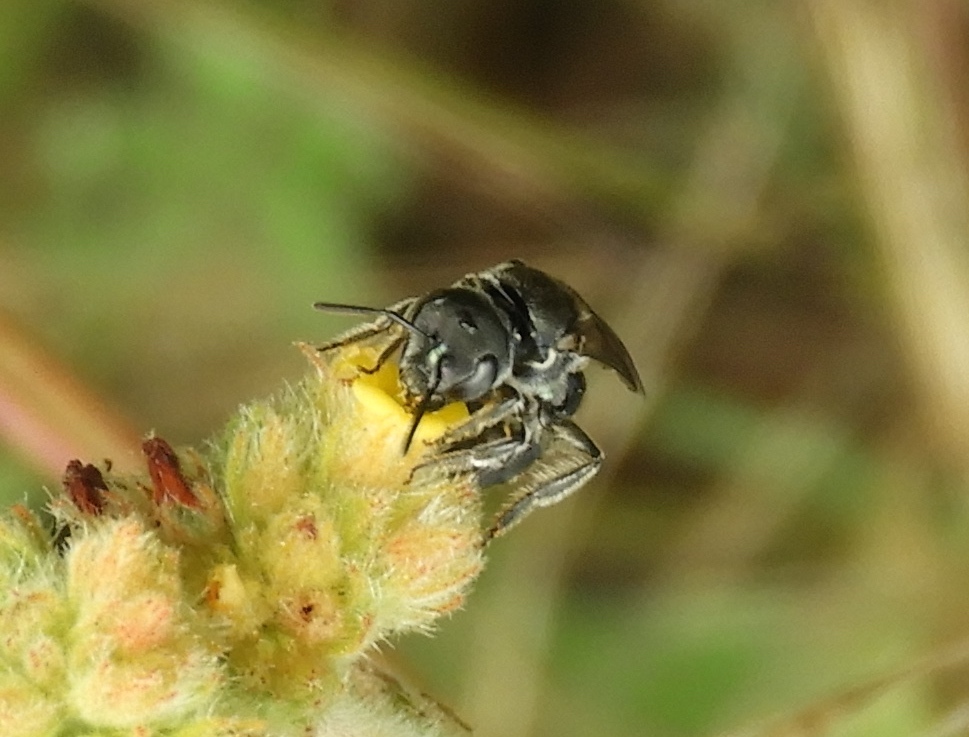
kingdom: Animalia
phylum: Arthropoda
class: Insecta
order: Hymenoptera
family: Halictidae
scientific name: Halictidae
